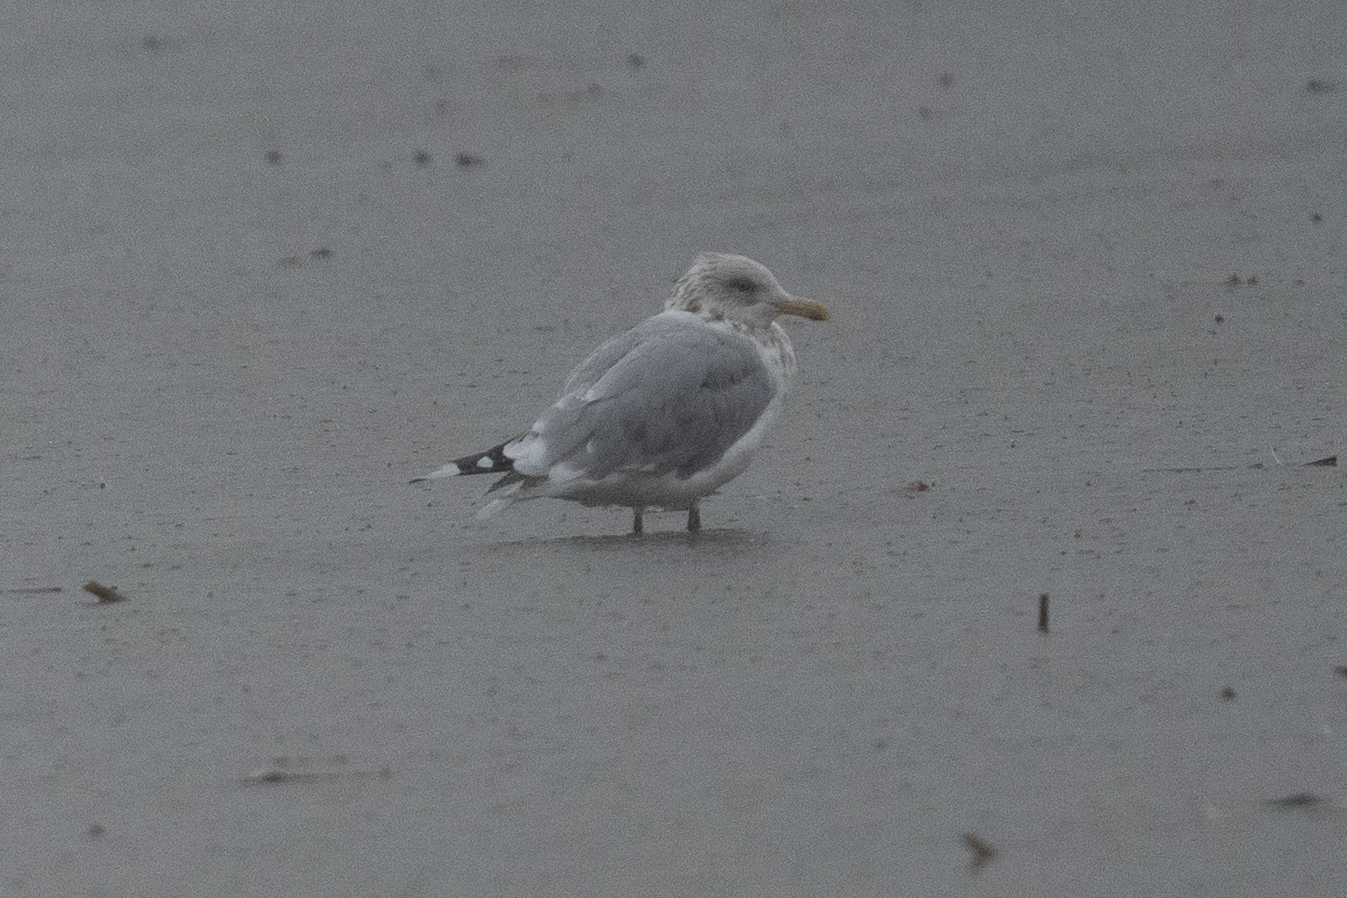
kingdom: Animalia
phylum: Chordata
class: Aves
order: Charadriiformes
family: Laridae
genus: Larus
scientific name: Larus argentatus
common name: Herring gull
